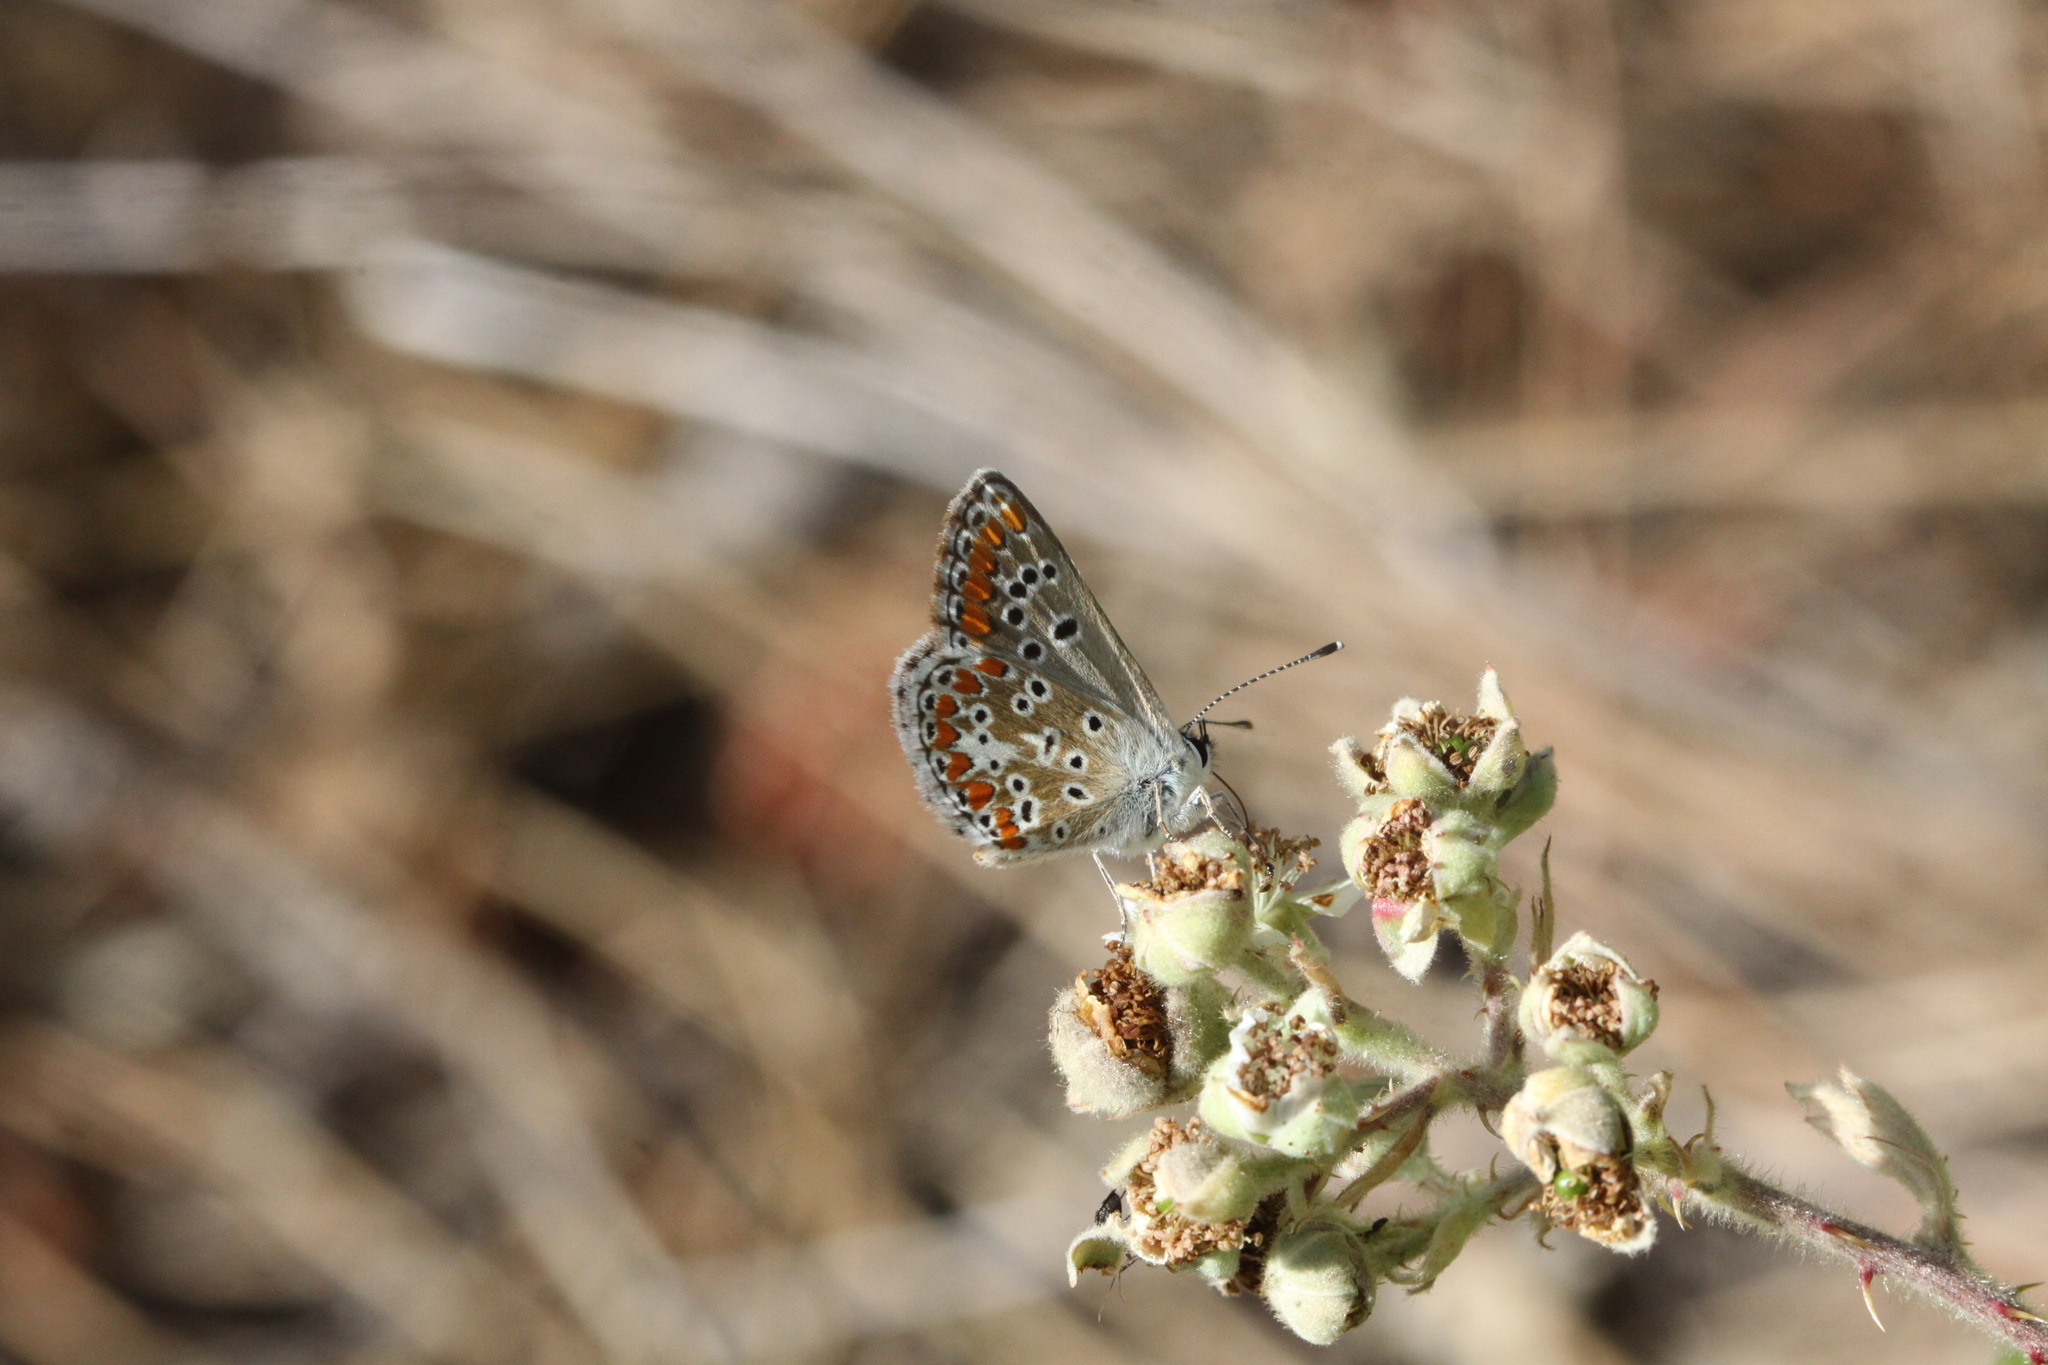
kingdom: Animalia
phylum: Arthropoda
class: Insecta
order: Lepidoptera
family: Lycaenidae
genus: Aricia
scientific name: Aricia agestis
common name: Brown argus
